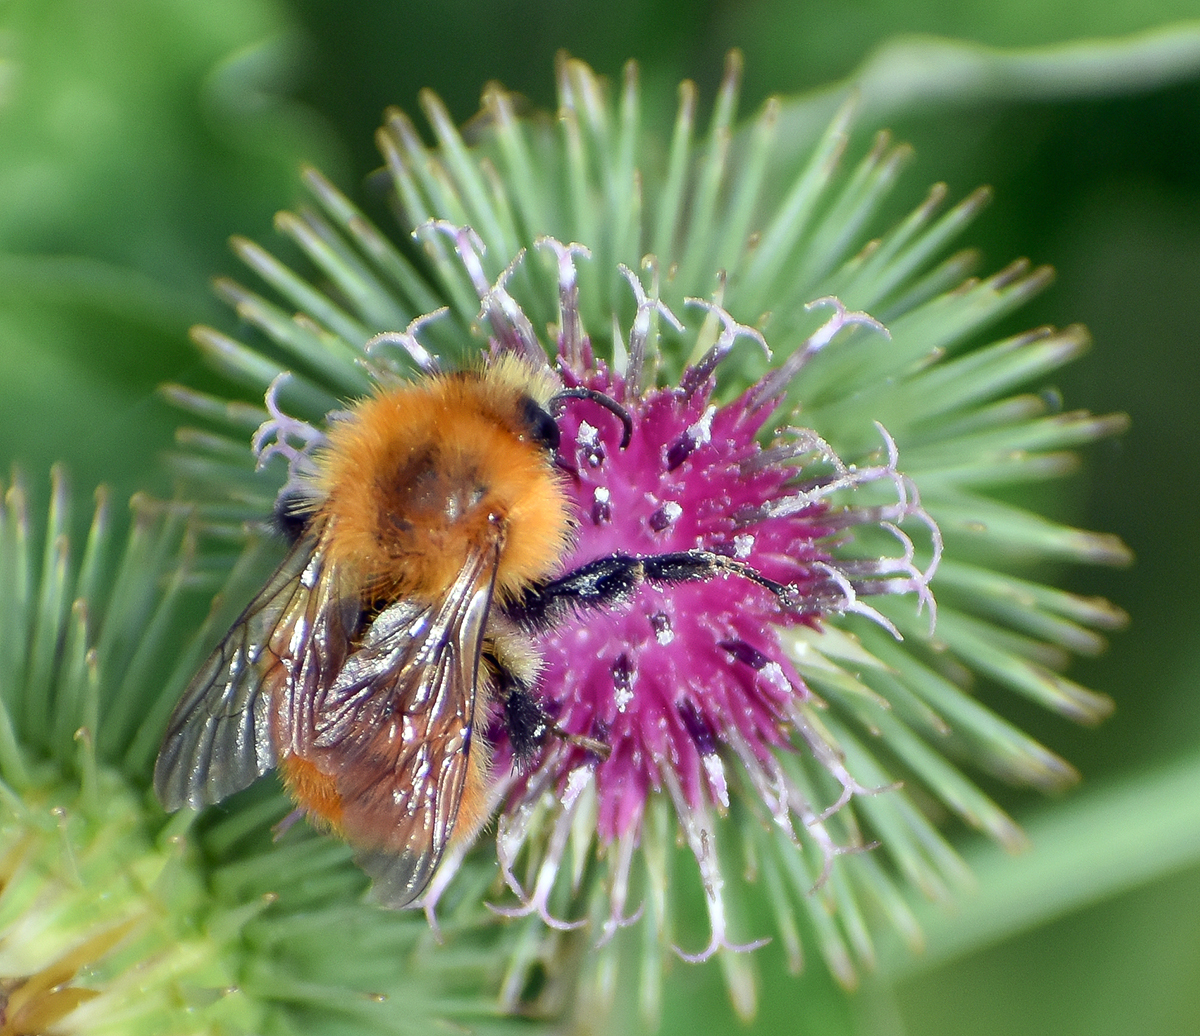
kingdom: Animalia
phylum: Arthropoda
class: Insecta
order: Hymenoptera
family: Apidae
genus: Bombus
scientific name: Bombus pascuorum
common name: Common carder bee
